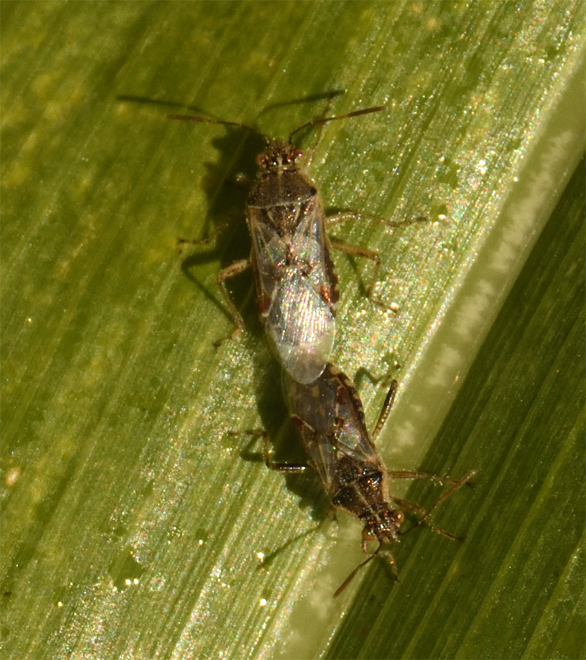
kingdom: Animalia
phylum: Arthropoda
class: Insecta
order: Hemiptera
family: Rhopalidae
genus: Liorhyssus
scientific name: Liorhyssus hyalinus
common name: Scentless plant bug
